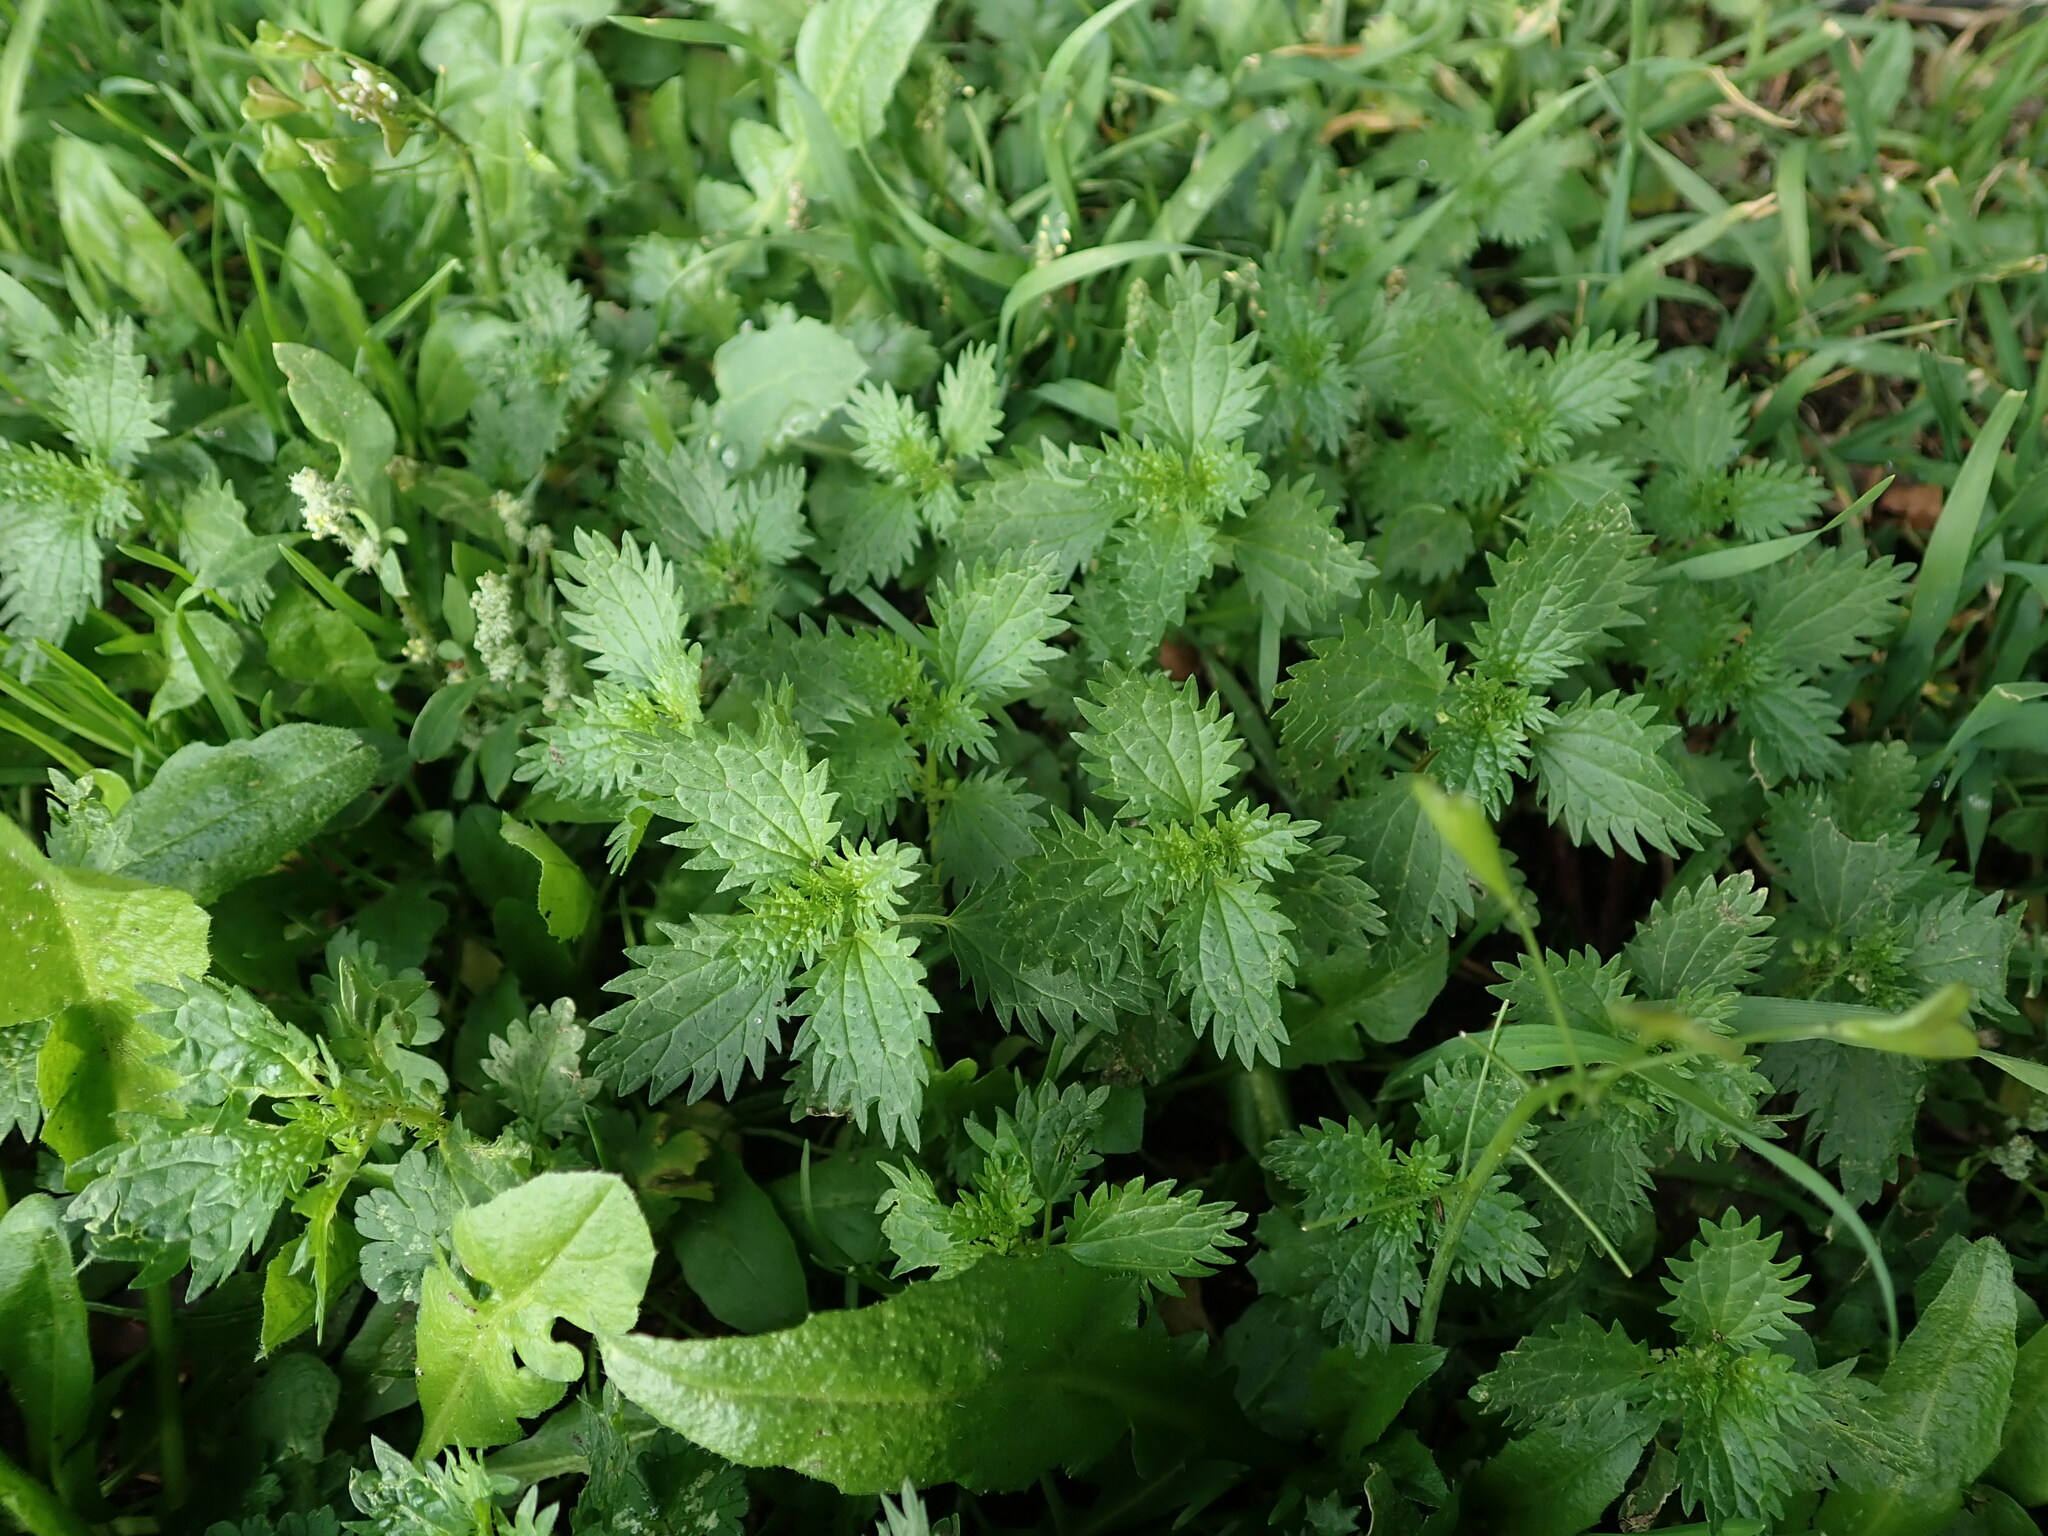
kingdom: Plantae
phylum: Tracheophyta
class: Magnoliopsida
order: Rosales
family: Urticaceae
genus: Urtica
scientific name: Urtica urens
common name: Dwarf nettle
